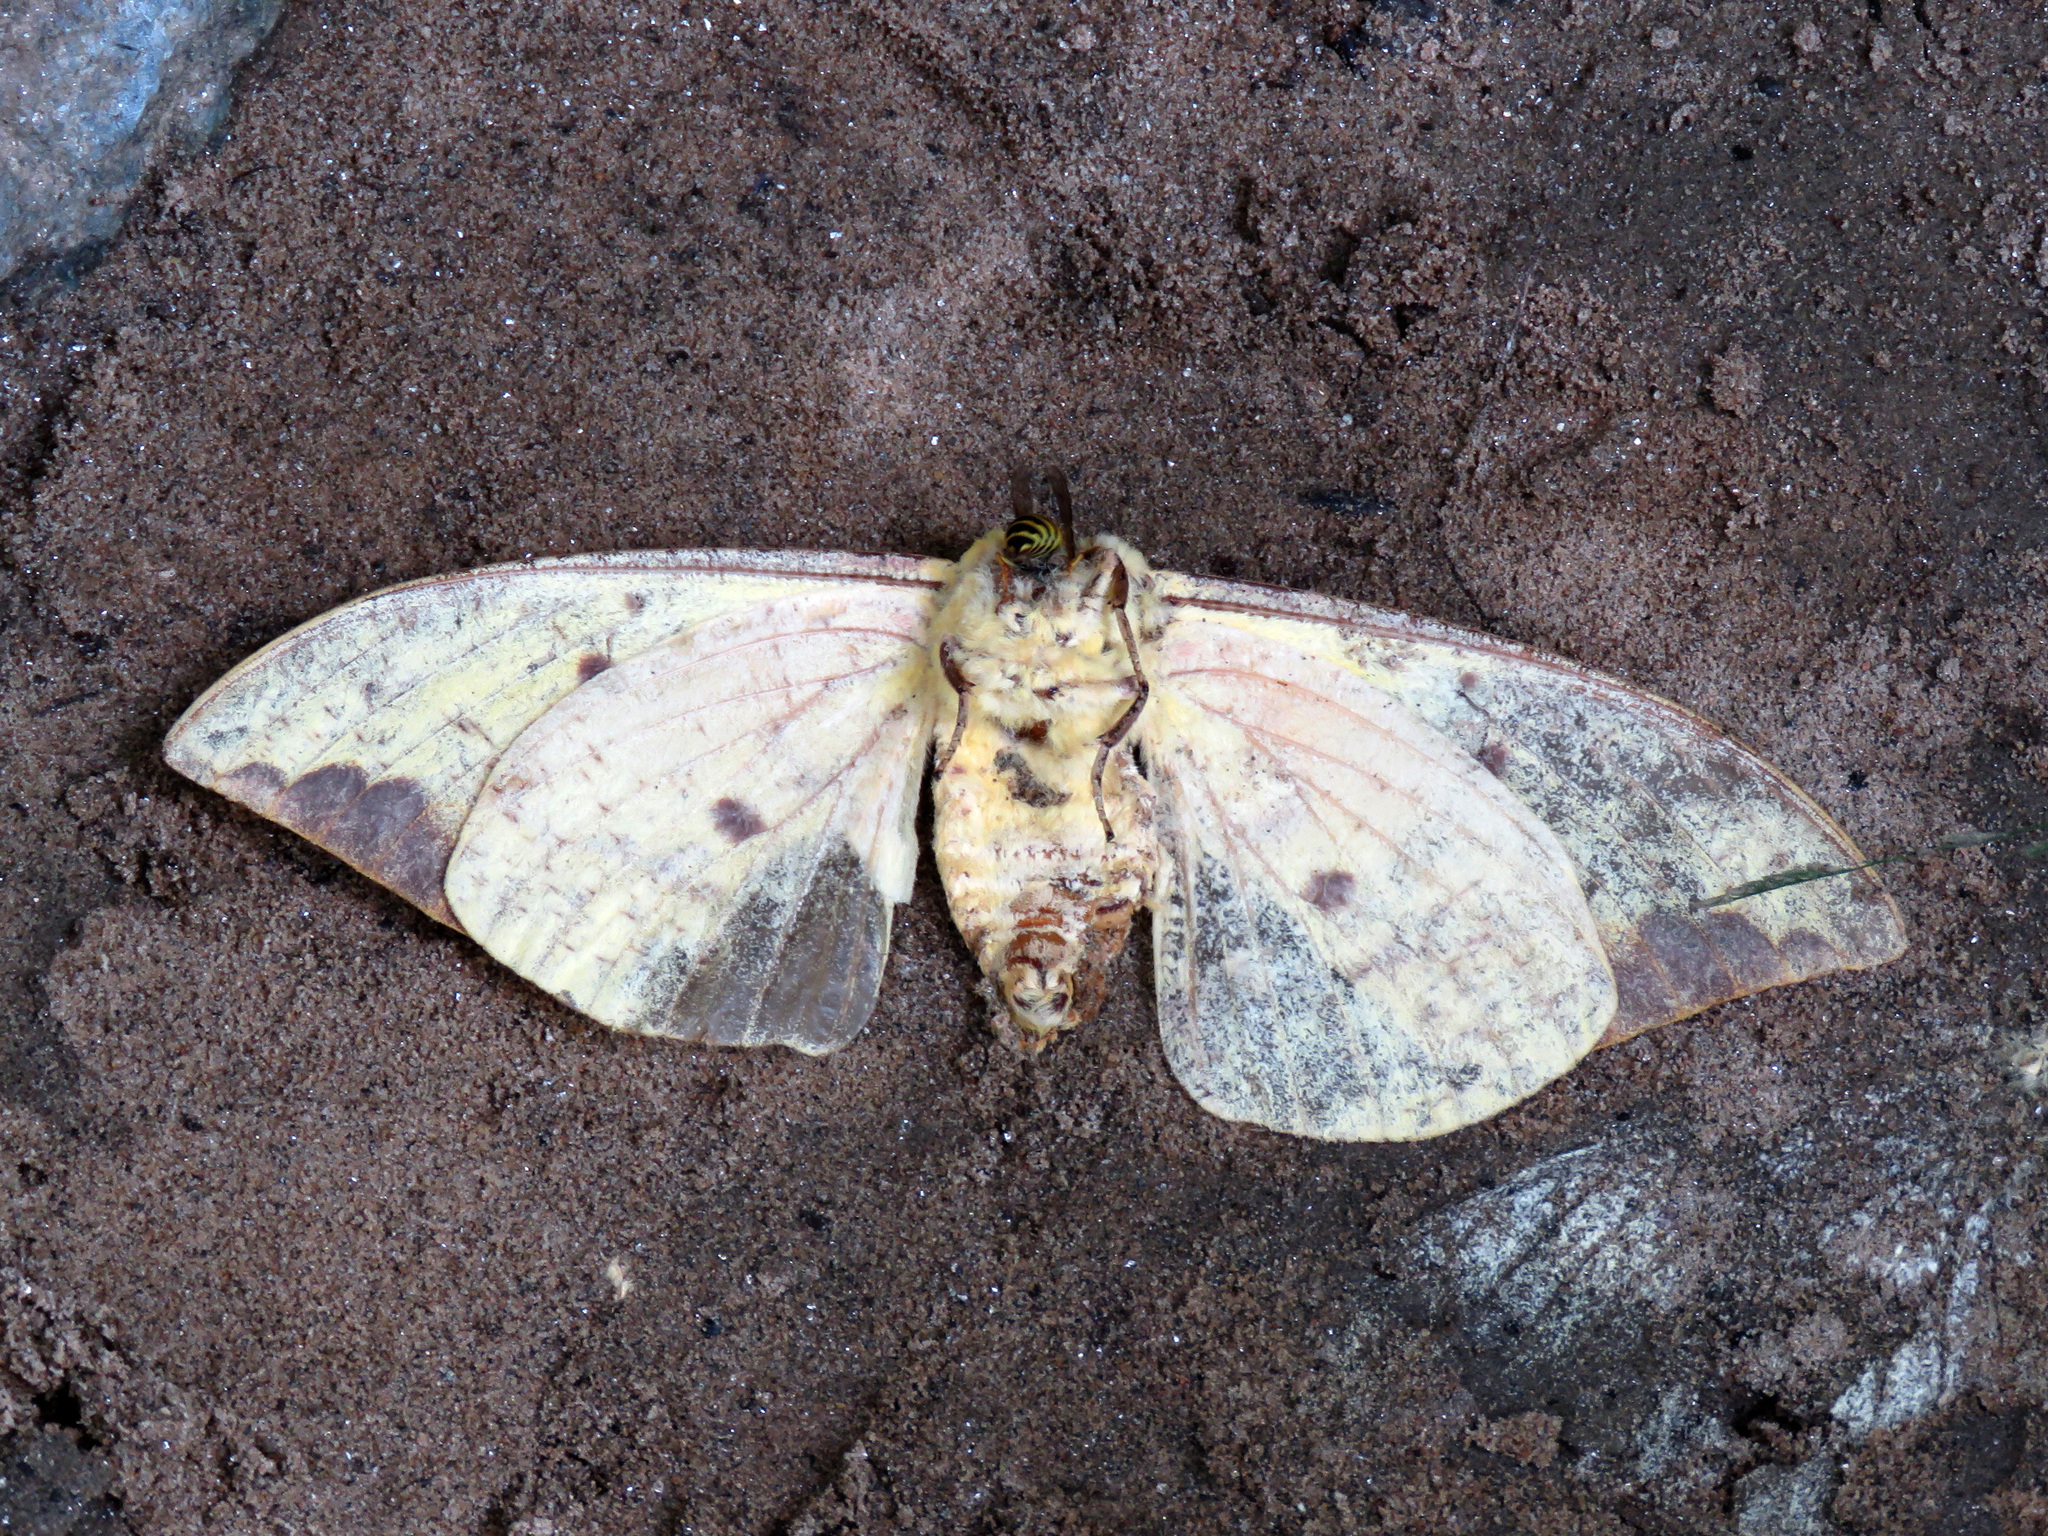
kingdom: Animalia
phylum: Arthropoda
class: Insecta
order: Lepidoptera
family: Saturniidae
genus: Eacles
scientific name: Eacles imperialis
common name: Imperial moth
